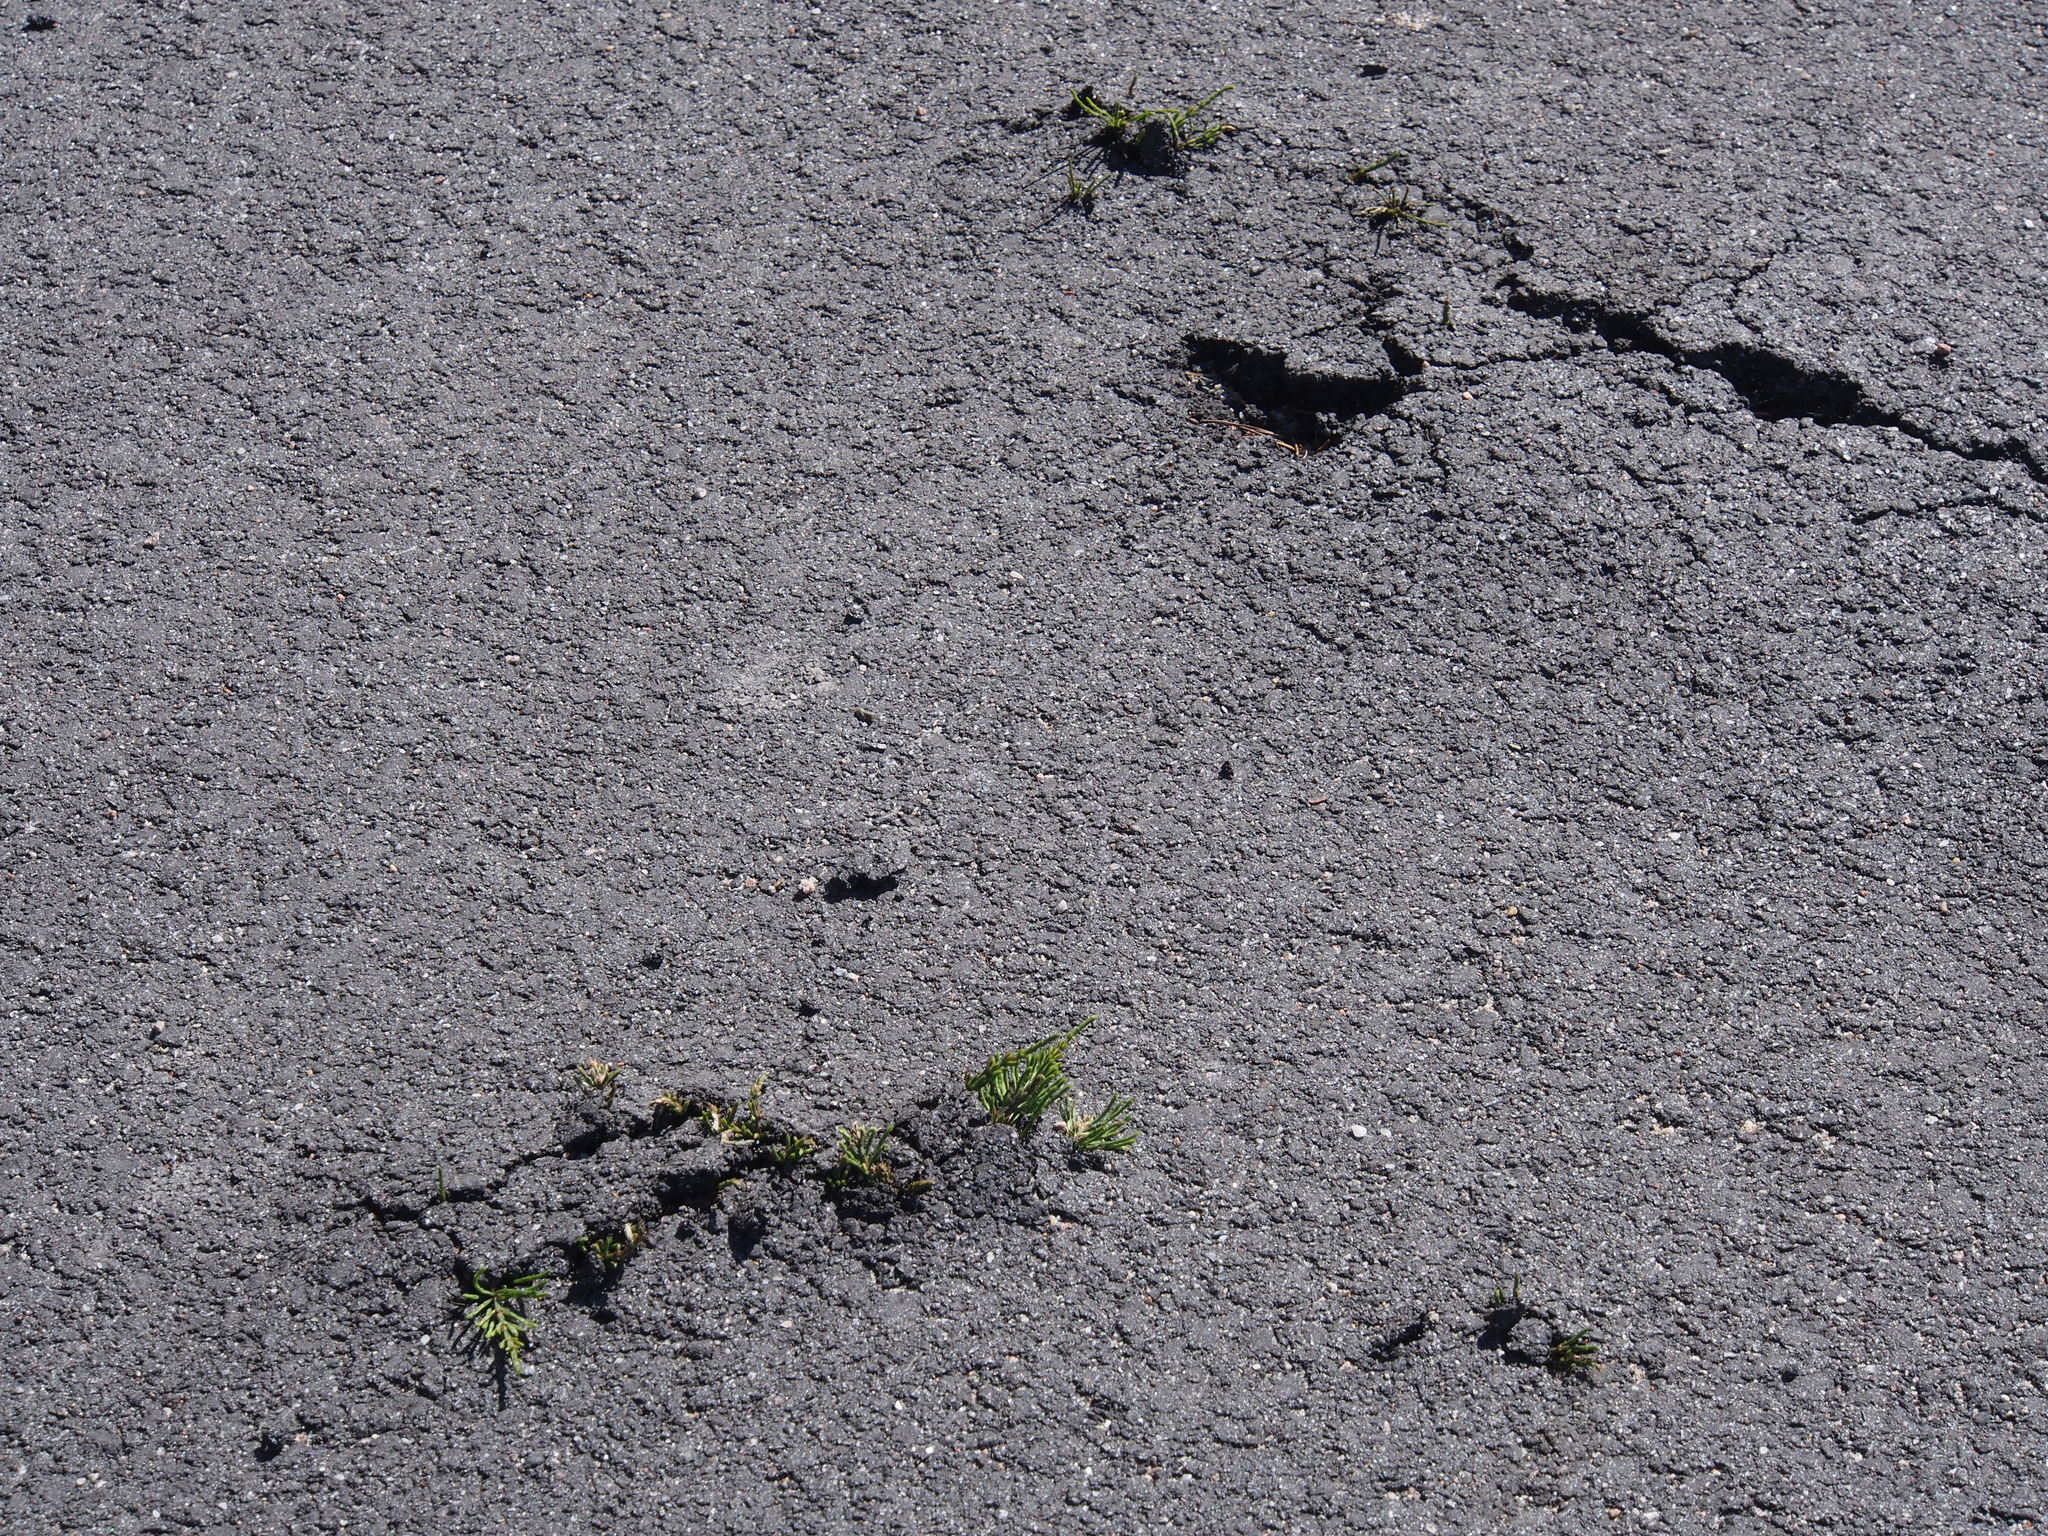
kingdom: Plantae
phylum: Tracheophyta
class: Polypodiopsida
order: Equisetales
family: Equisetaceae
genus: Equisetum
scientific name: Equisetum arvense
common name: Field horsetail
